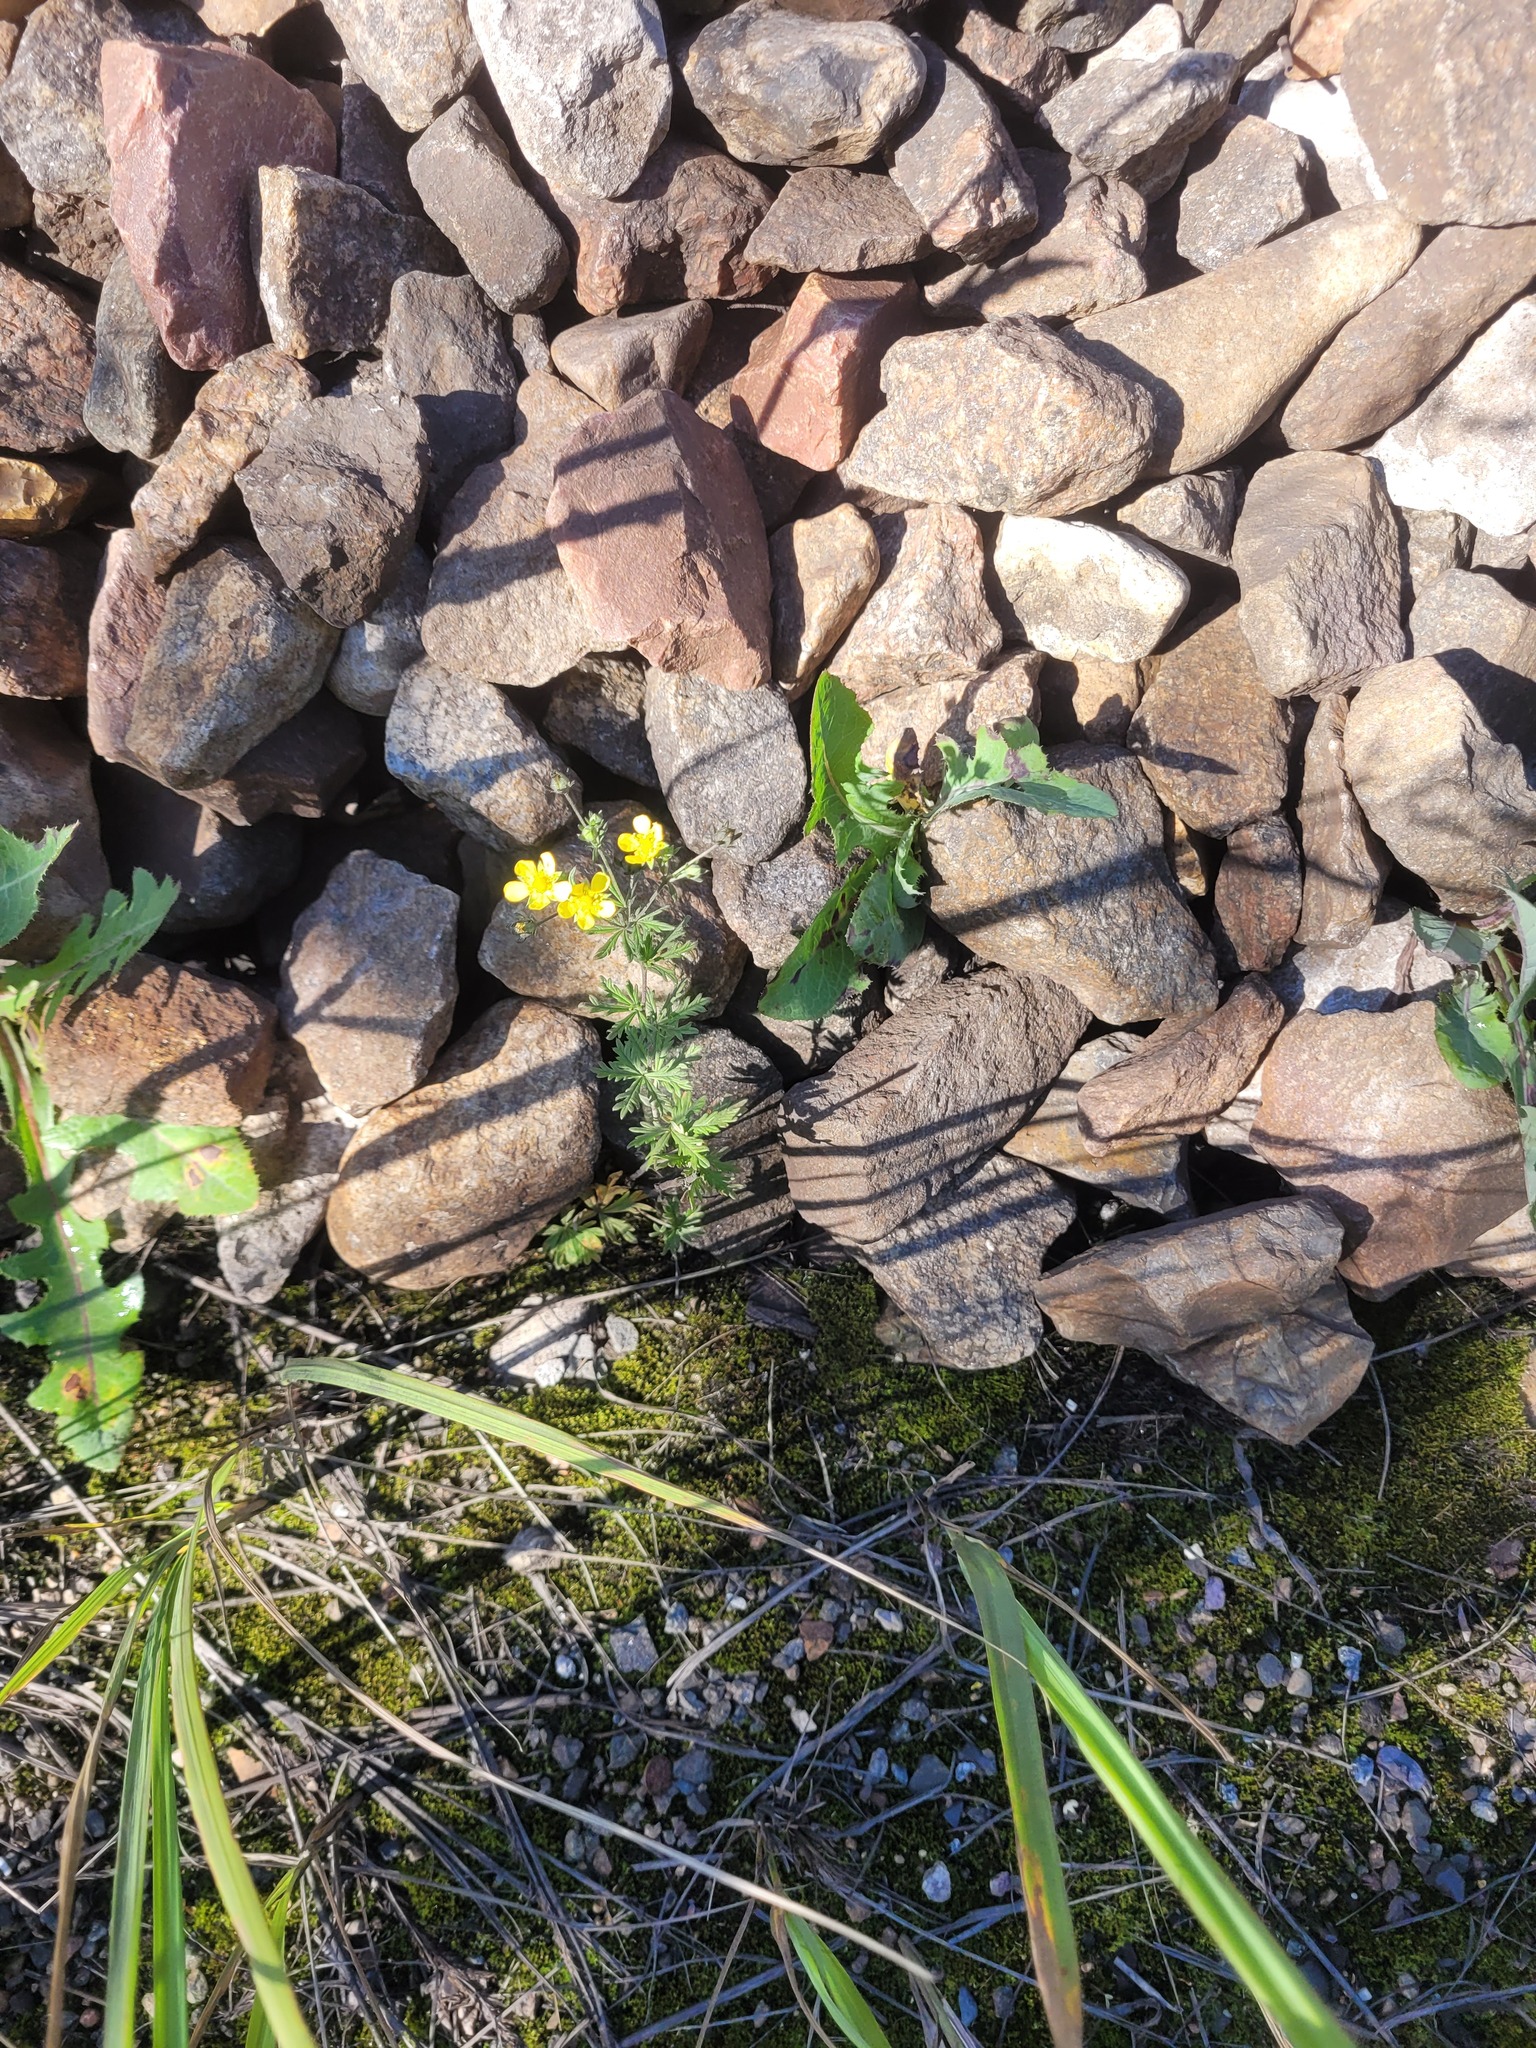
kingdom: Plantae
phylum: Tracheophyta
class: Magnoliopsida
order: Rosales
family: Rosaceae
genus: Potentilla
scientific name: Potentilla argentea
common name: Hoary cinquefoil
